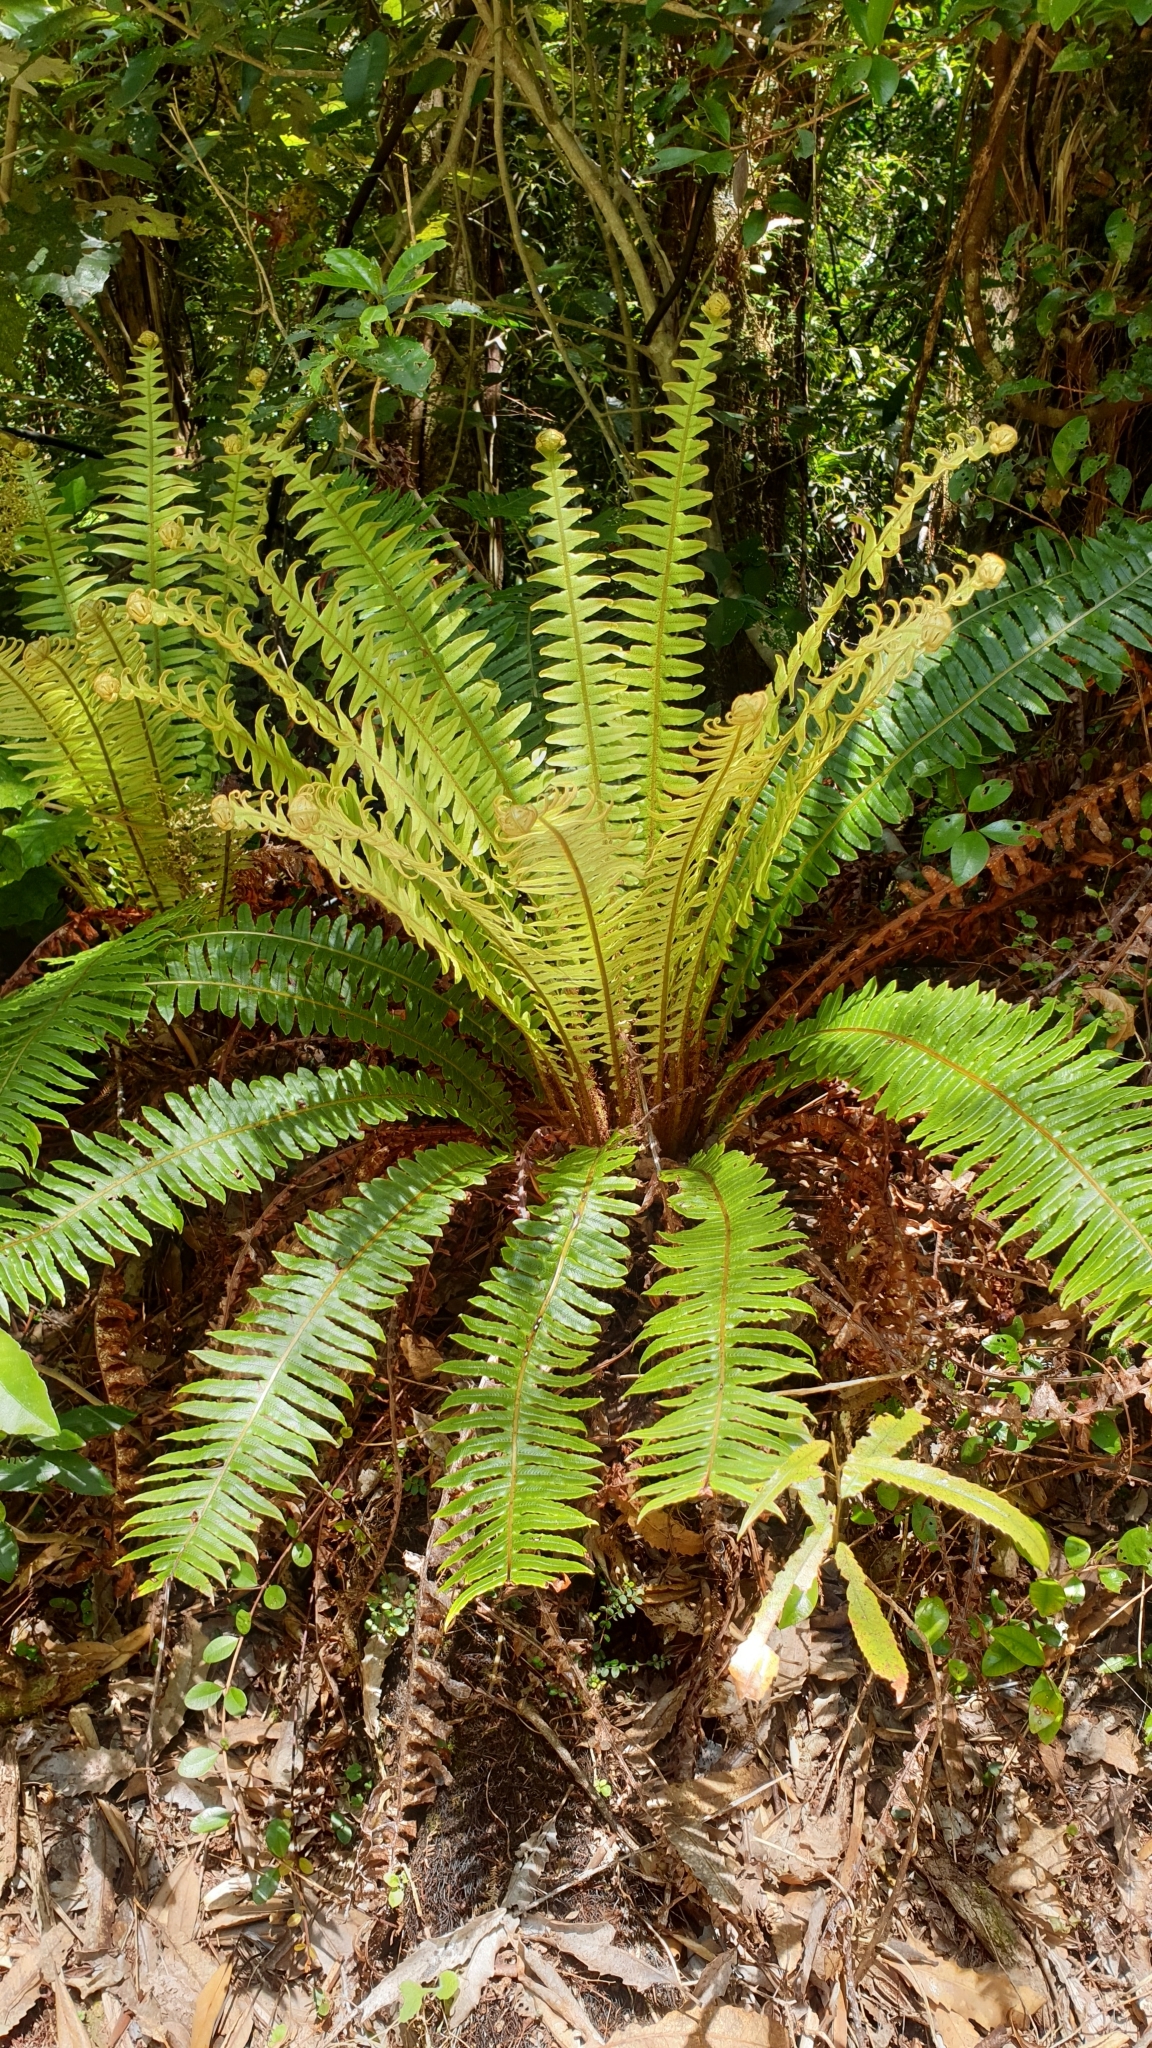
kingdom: Plantae
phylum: Tracheophyta
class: Polypodiopsida
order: Polypodiales
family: Blechnaceae
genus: Lomaria
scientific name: Lomaria discolor
